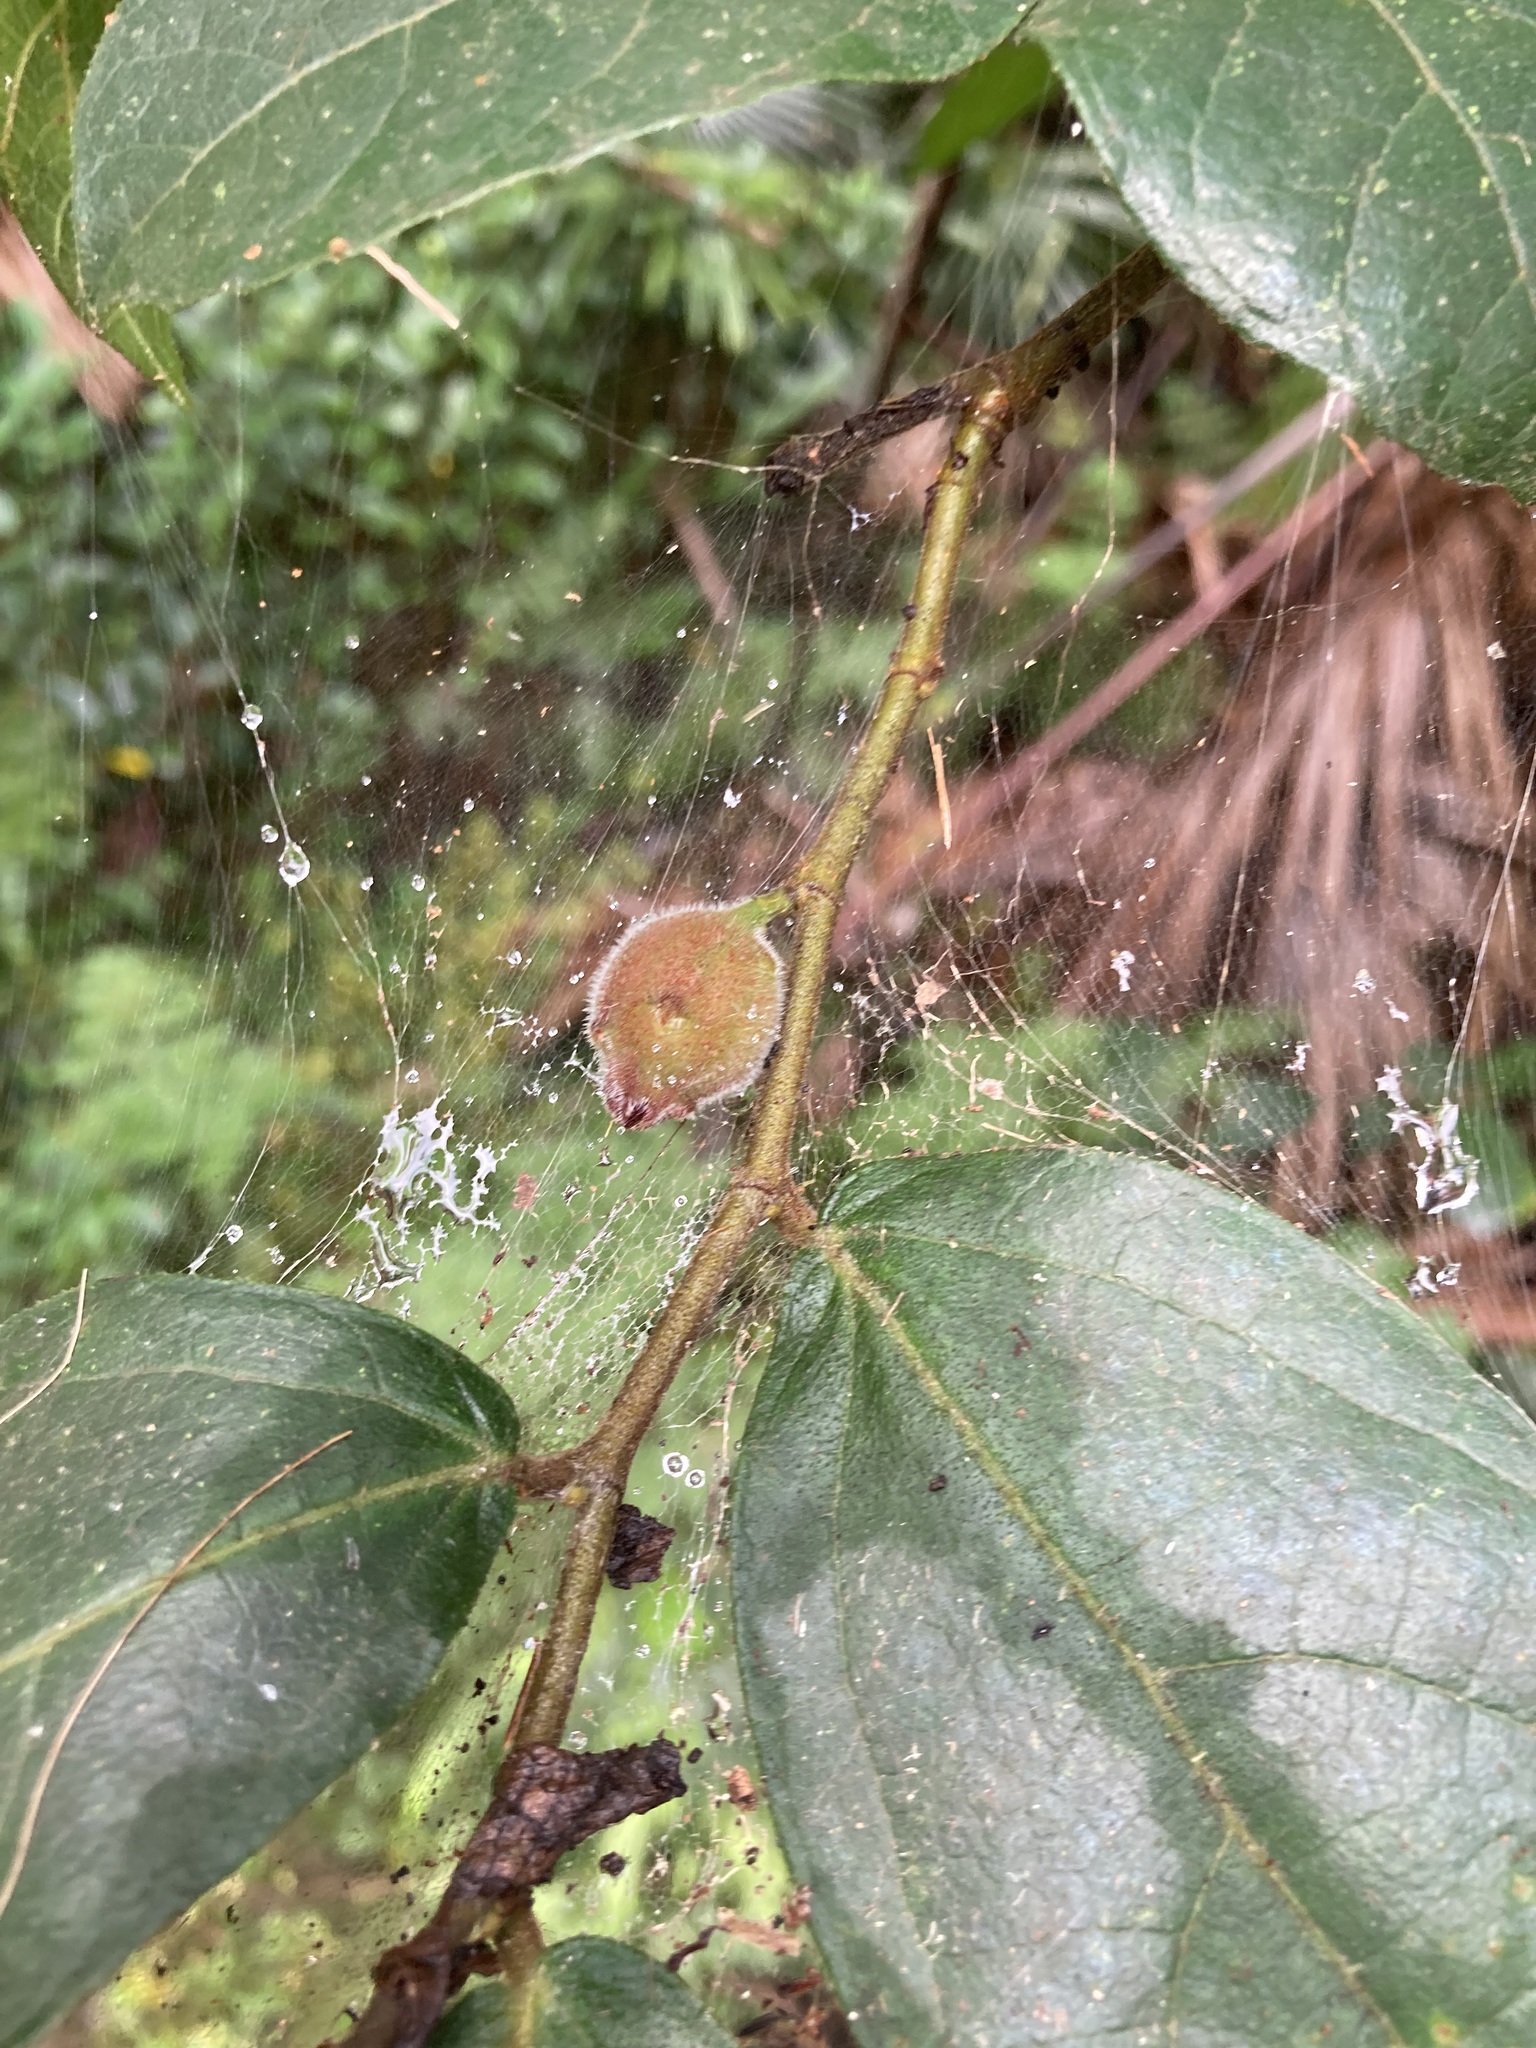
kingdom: Plantae
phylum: Tracheophyta
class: Magnoliopsida
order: Rosales
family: Moraceae
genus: Ficus
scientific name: Ficus coronata
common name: Creek sandpaper fig
